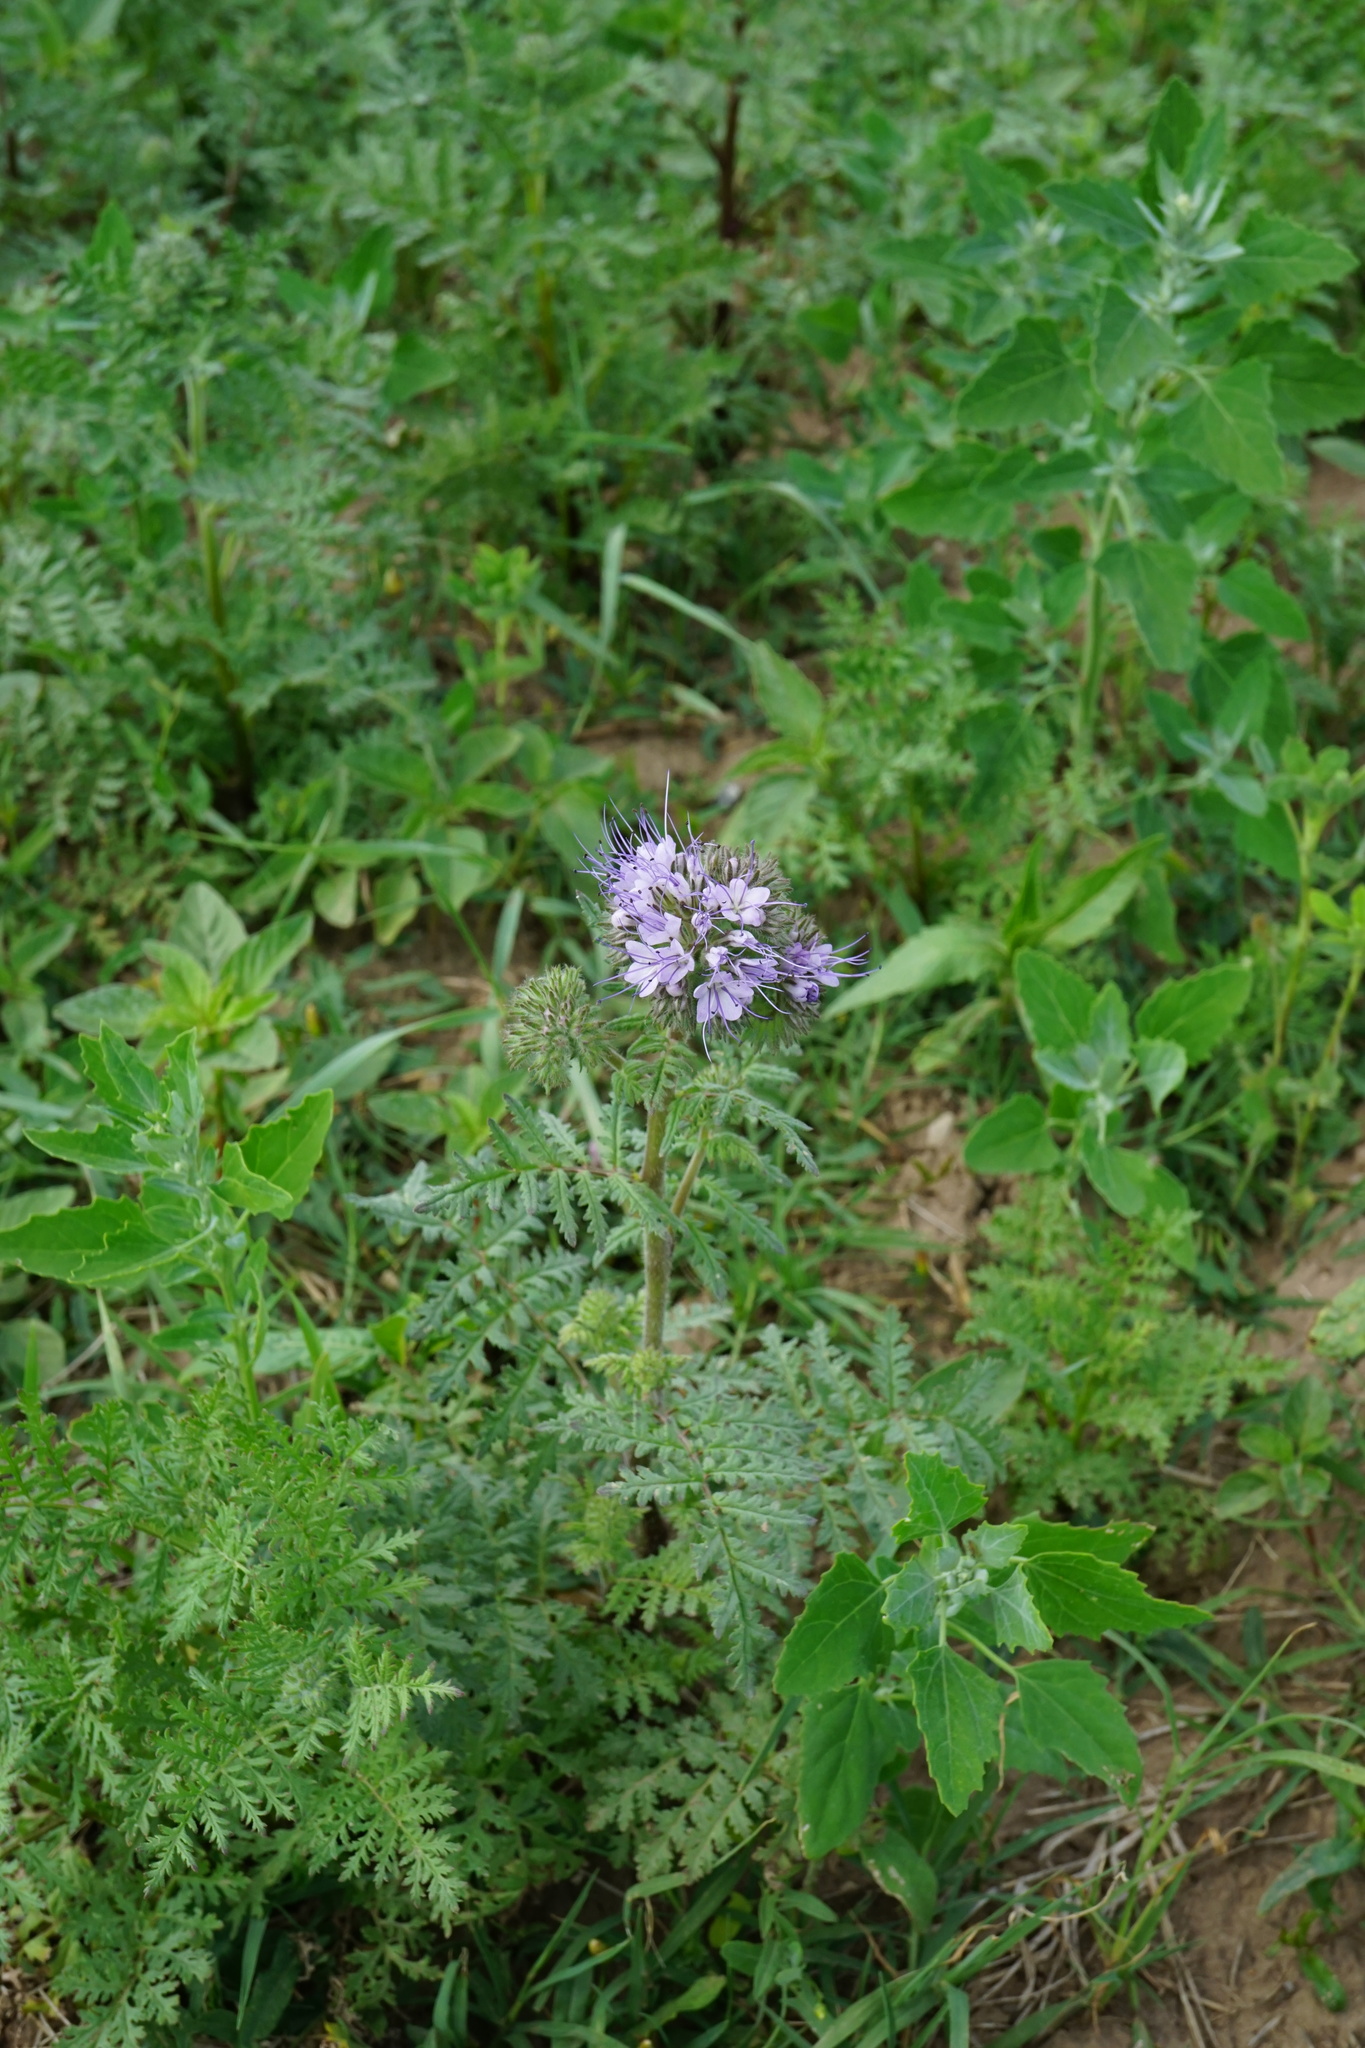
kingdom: Plantae
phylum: Tracheophyta
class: Magnoliopsida
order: Boraginales
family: Hydrophyllaceae
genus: Phacelia
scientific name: Phacelia tanacetifolia
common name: Phacelia
